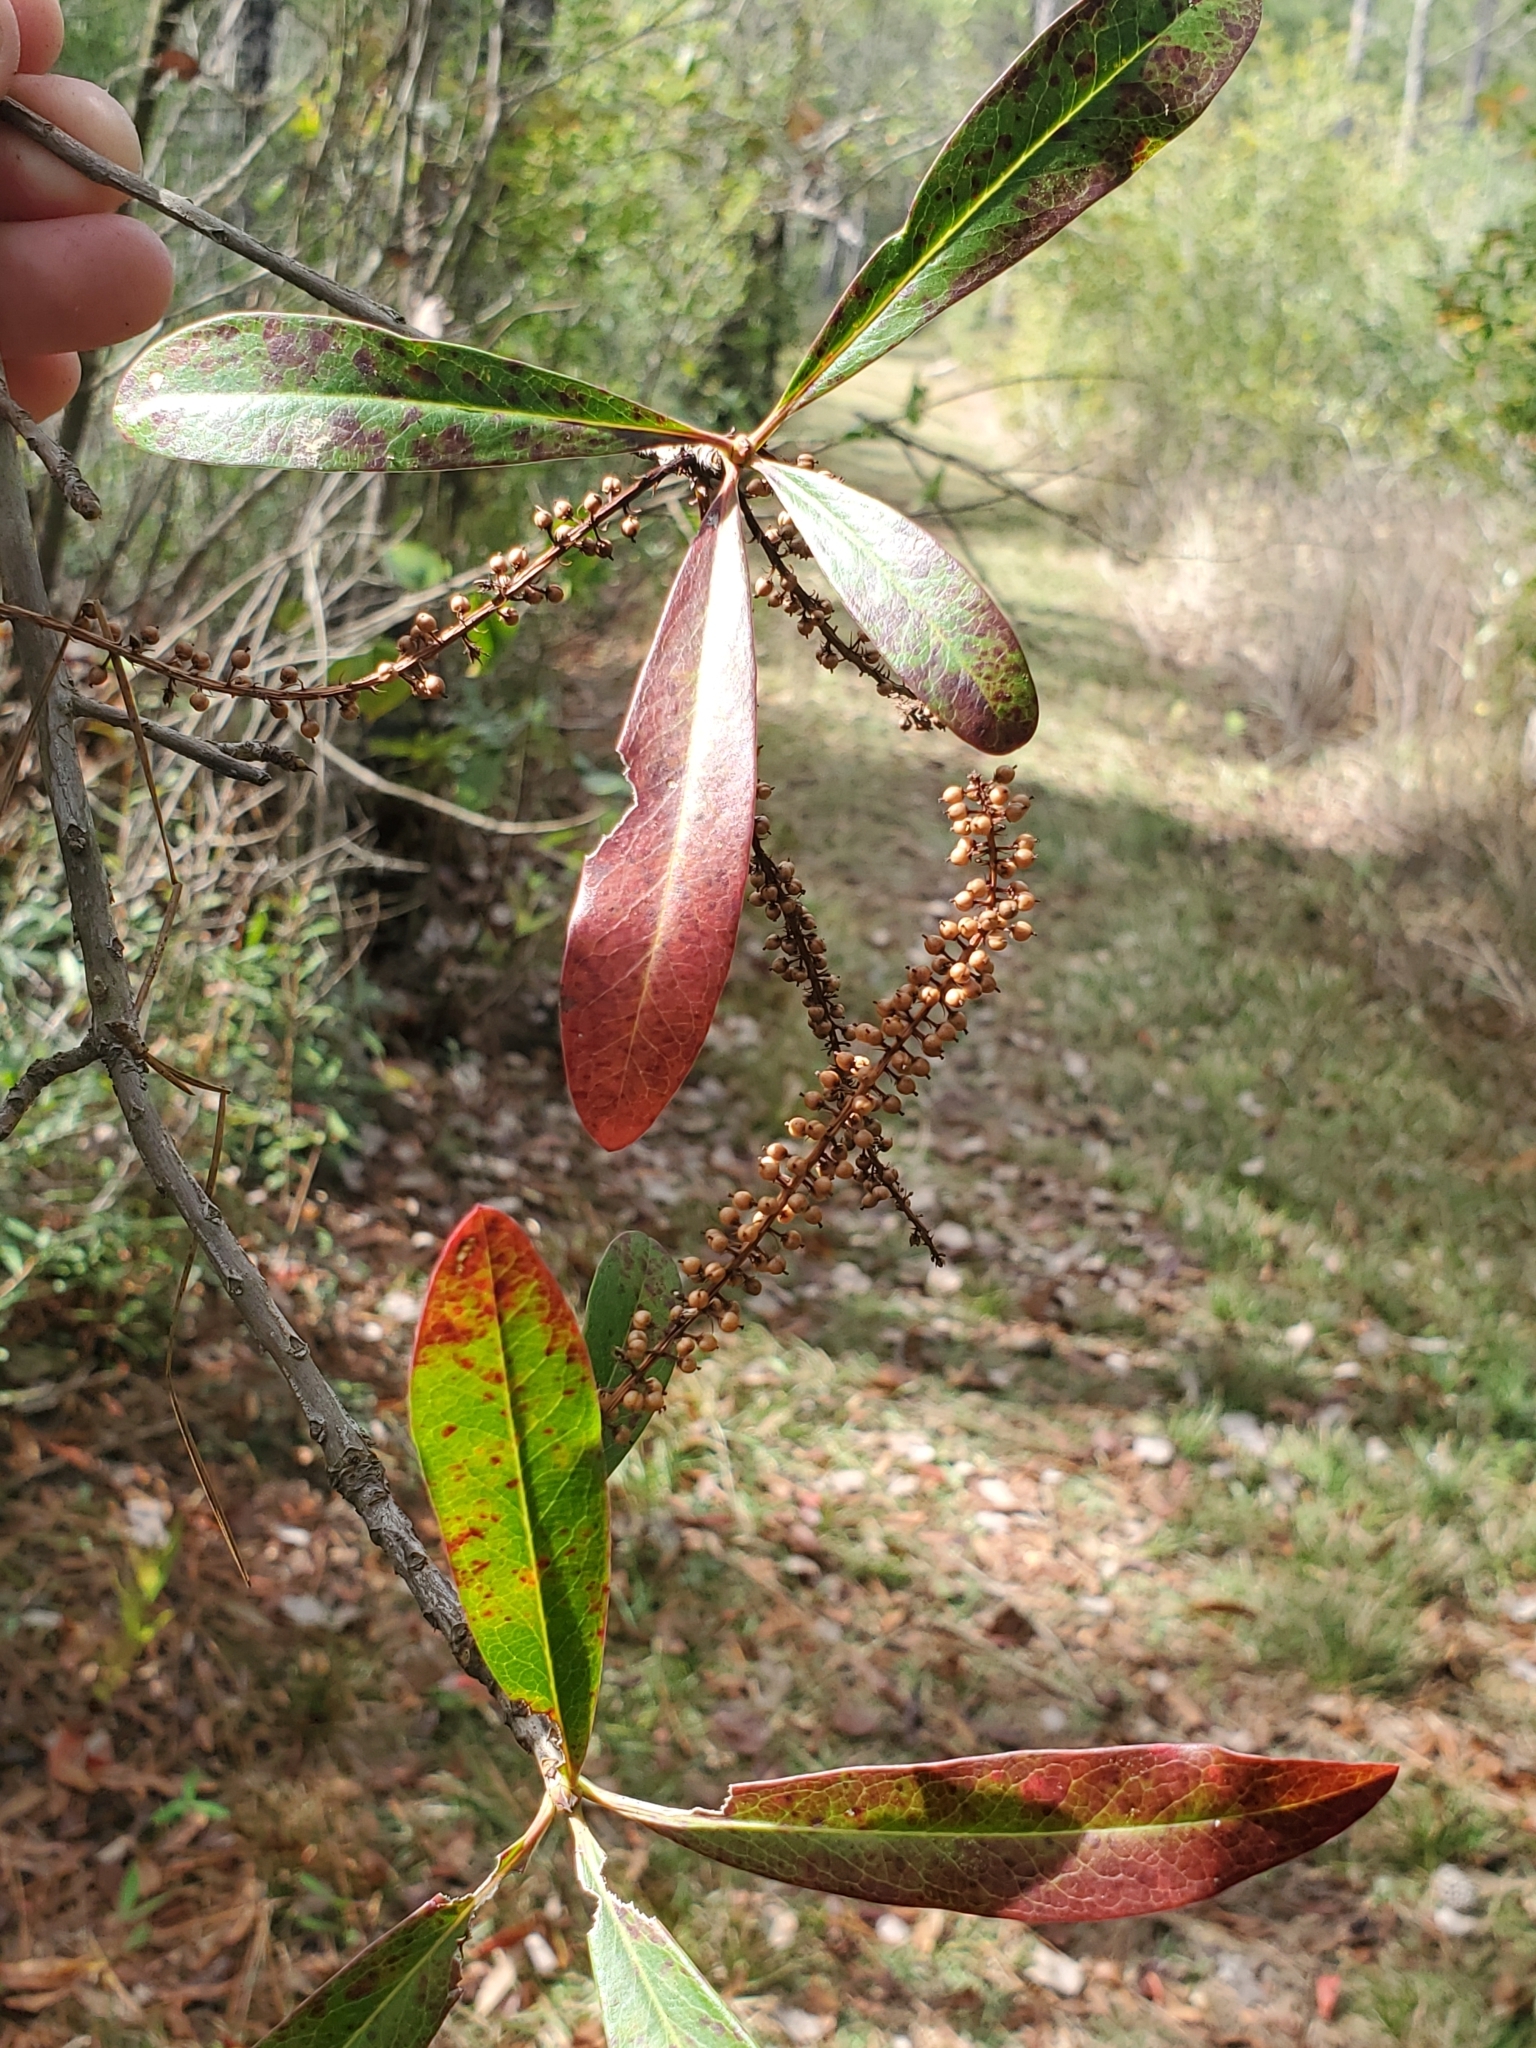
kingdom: Plantae
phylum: Tracheophyta
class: Magnoliopsida
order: Ericales
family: Cyrillaceae
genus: Cyrilla
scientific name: Cyrilla racemiflora
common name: Black titi
